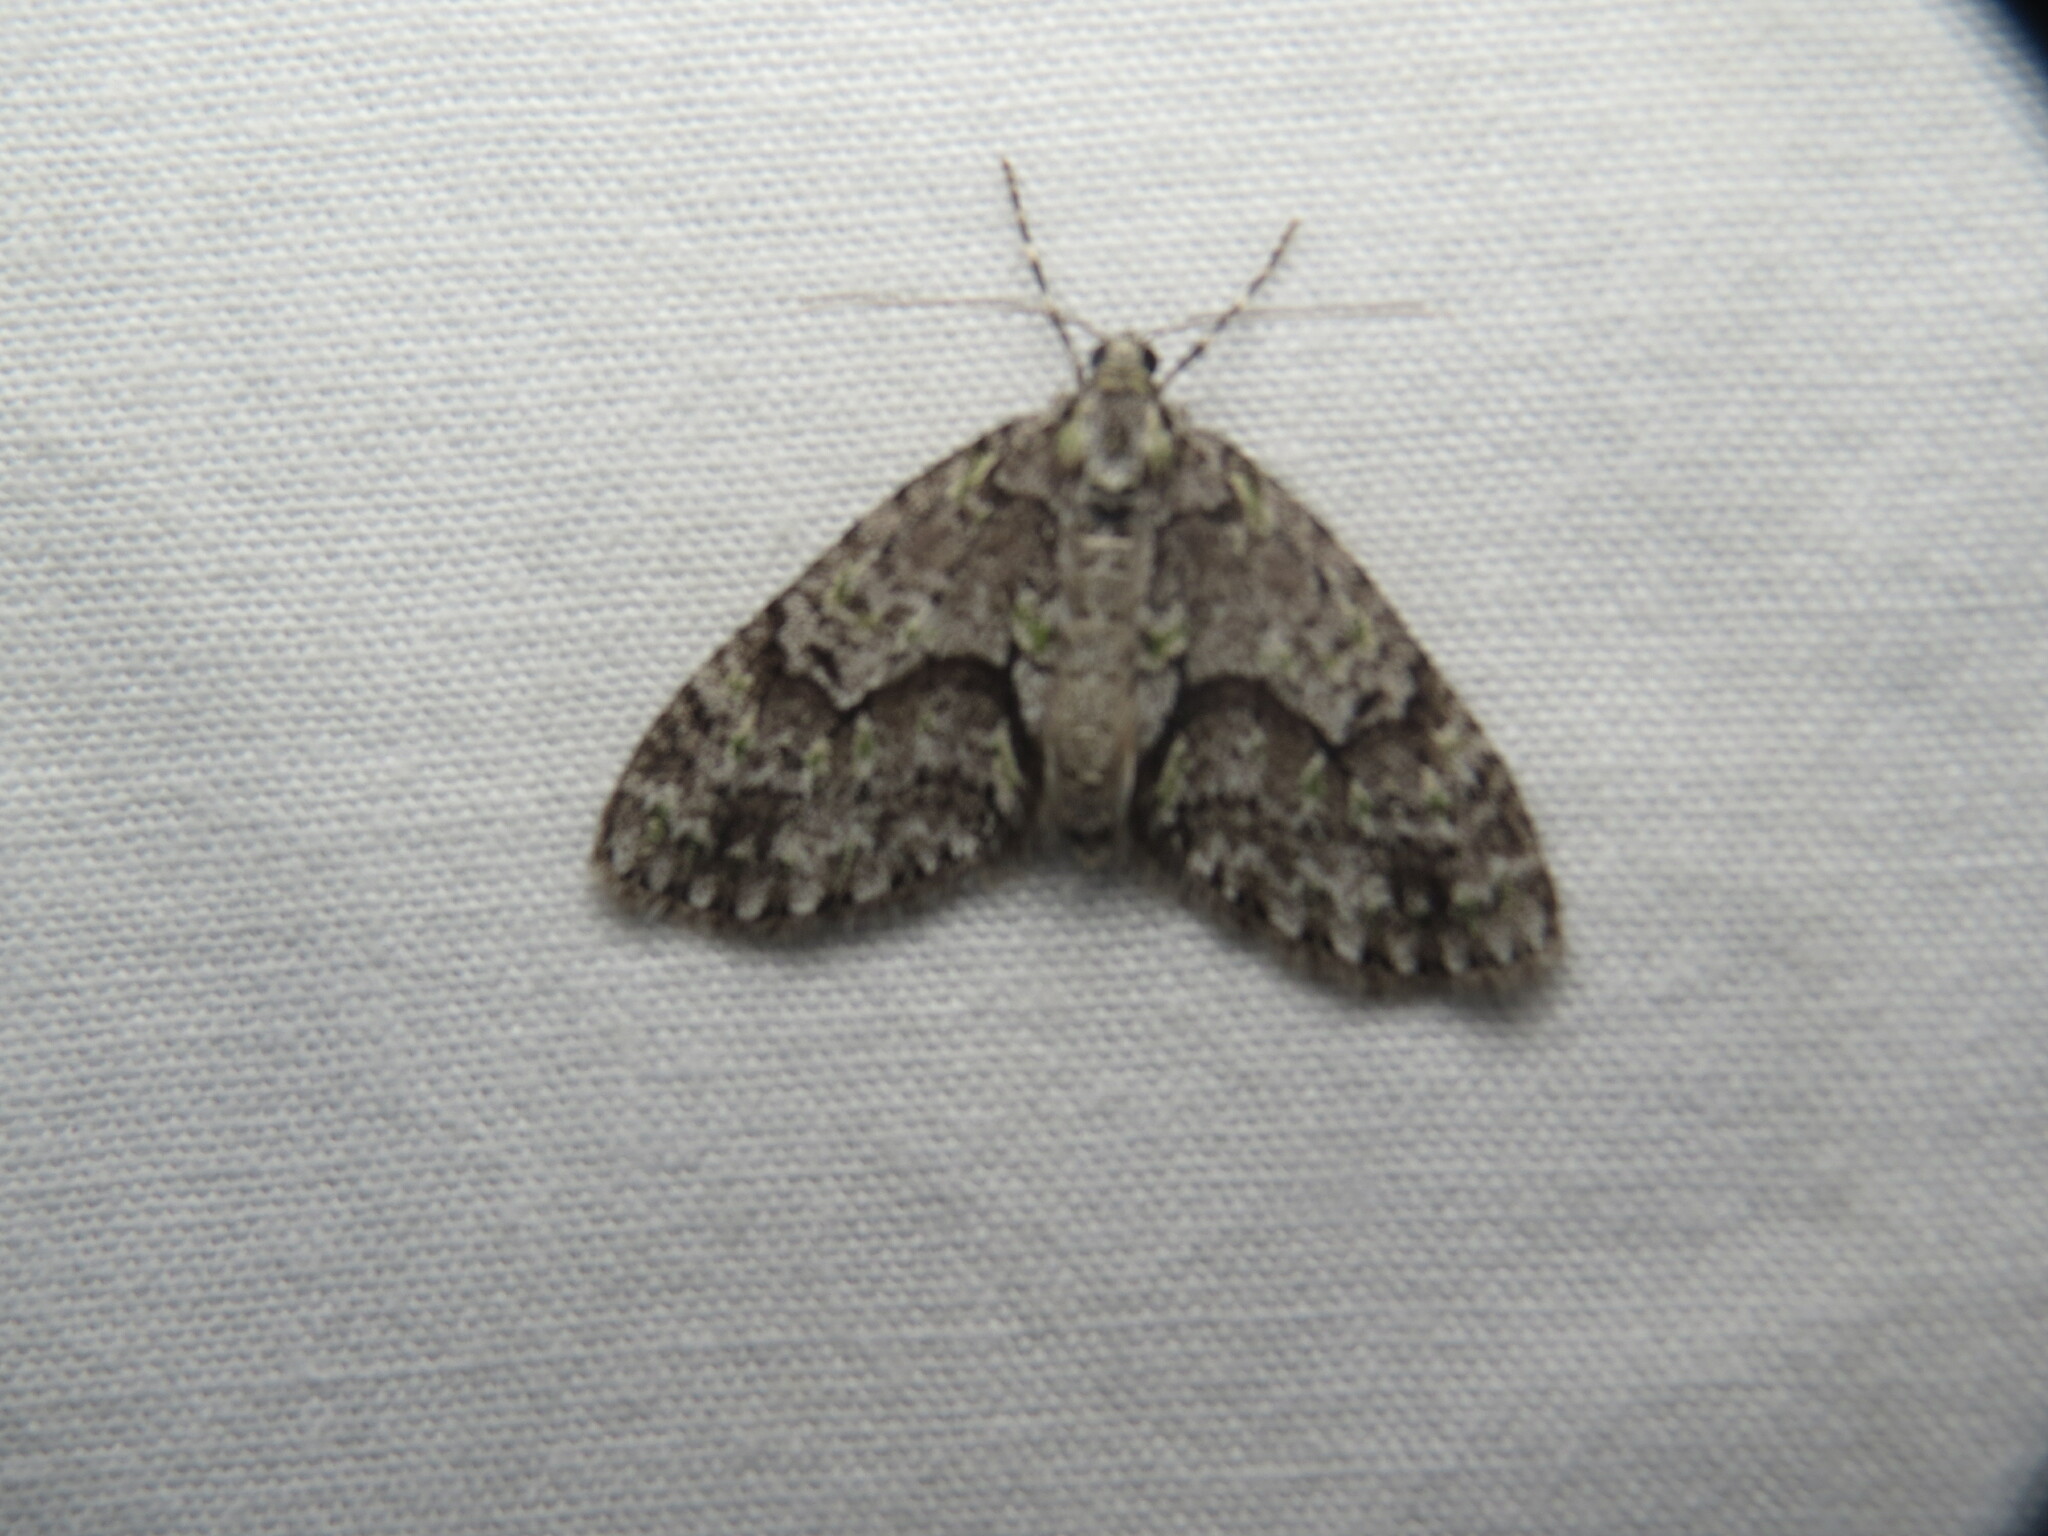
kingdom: Animalia
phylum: Arthropoda
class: Insecta
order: Lepidoptera
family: Geometridae
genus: Cladara
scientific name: Cladara limitaria
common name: Mottled gray carpet
